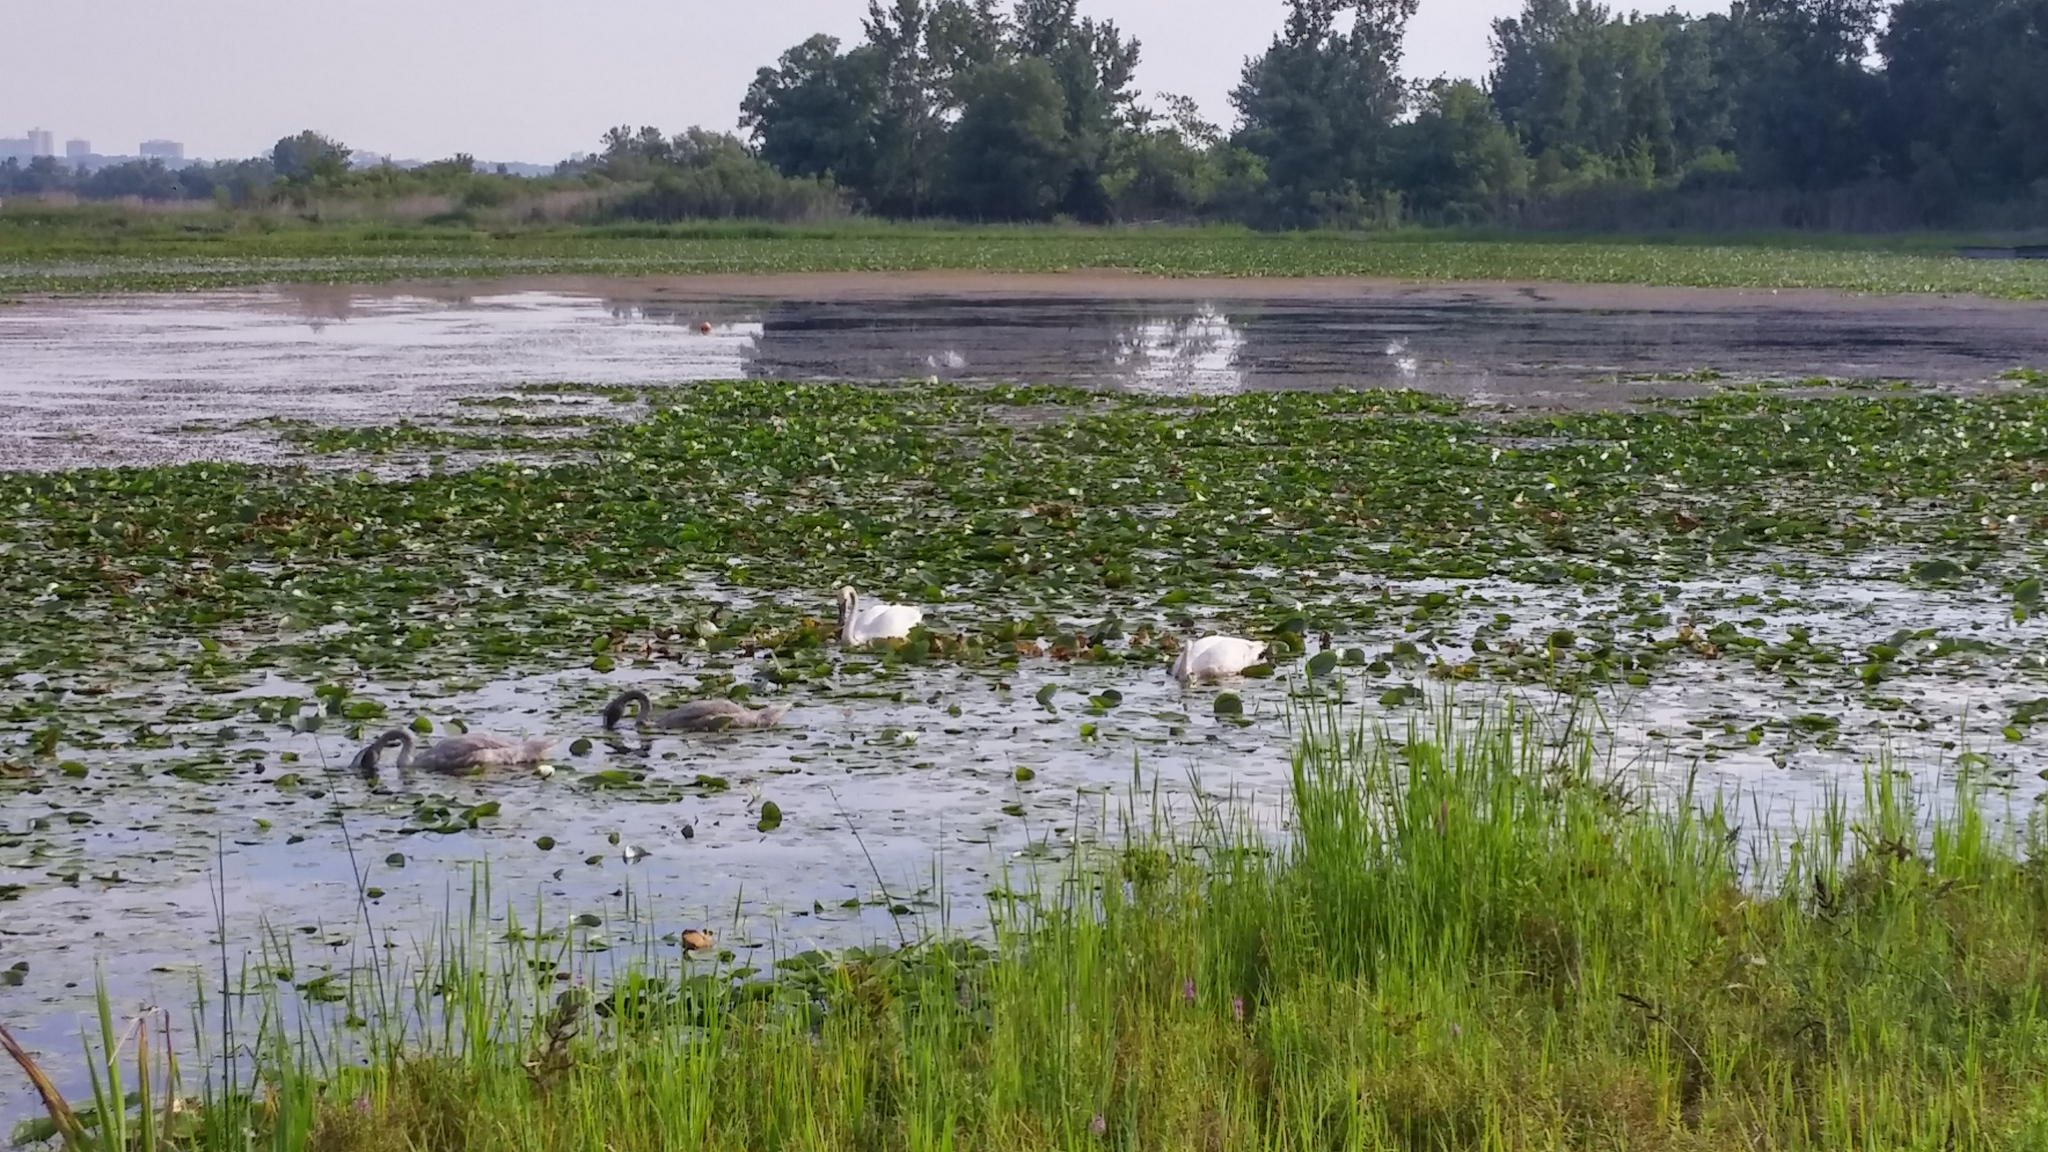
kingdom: Animalia
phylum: Chordata
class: Aves
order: Anseriformes
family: Anatidae
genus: Cygnus
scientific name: Cygnus buccinator
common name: Trumpeter swan
